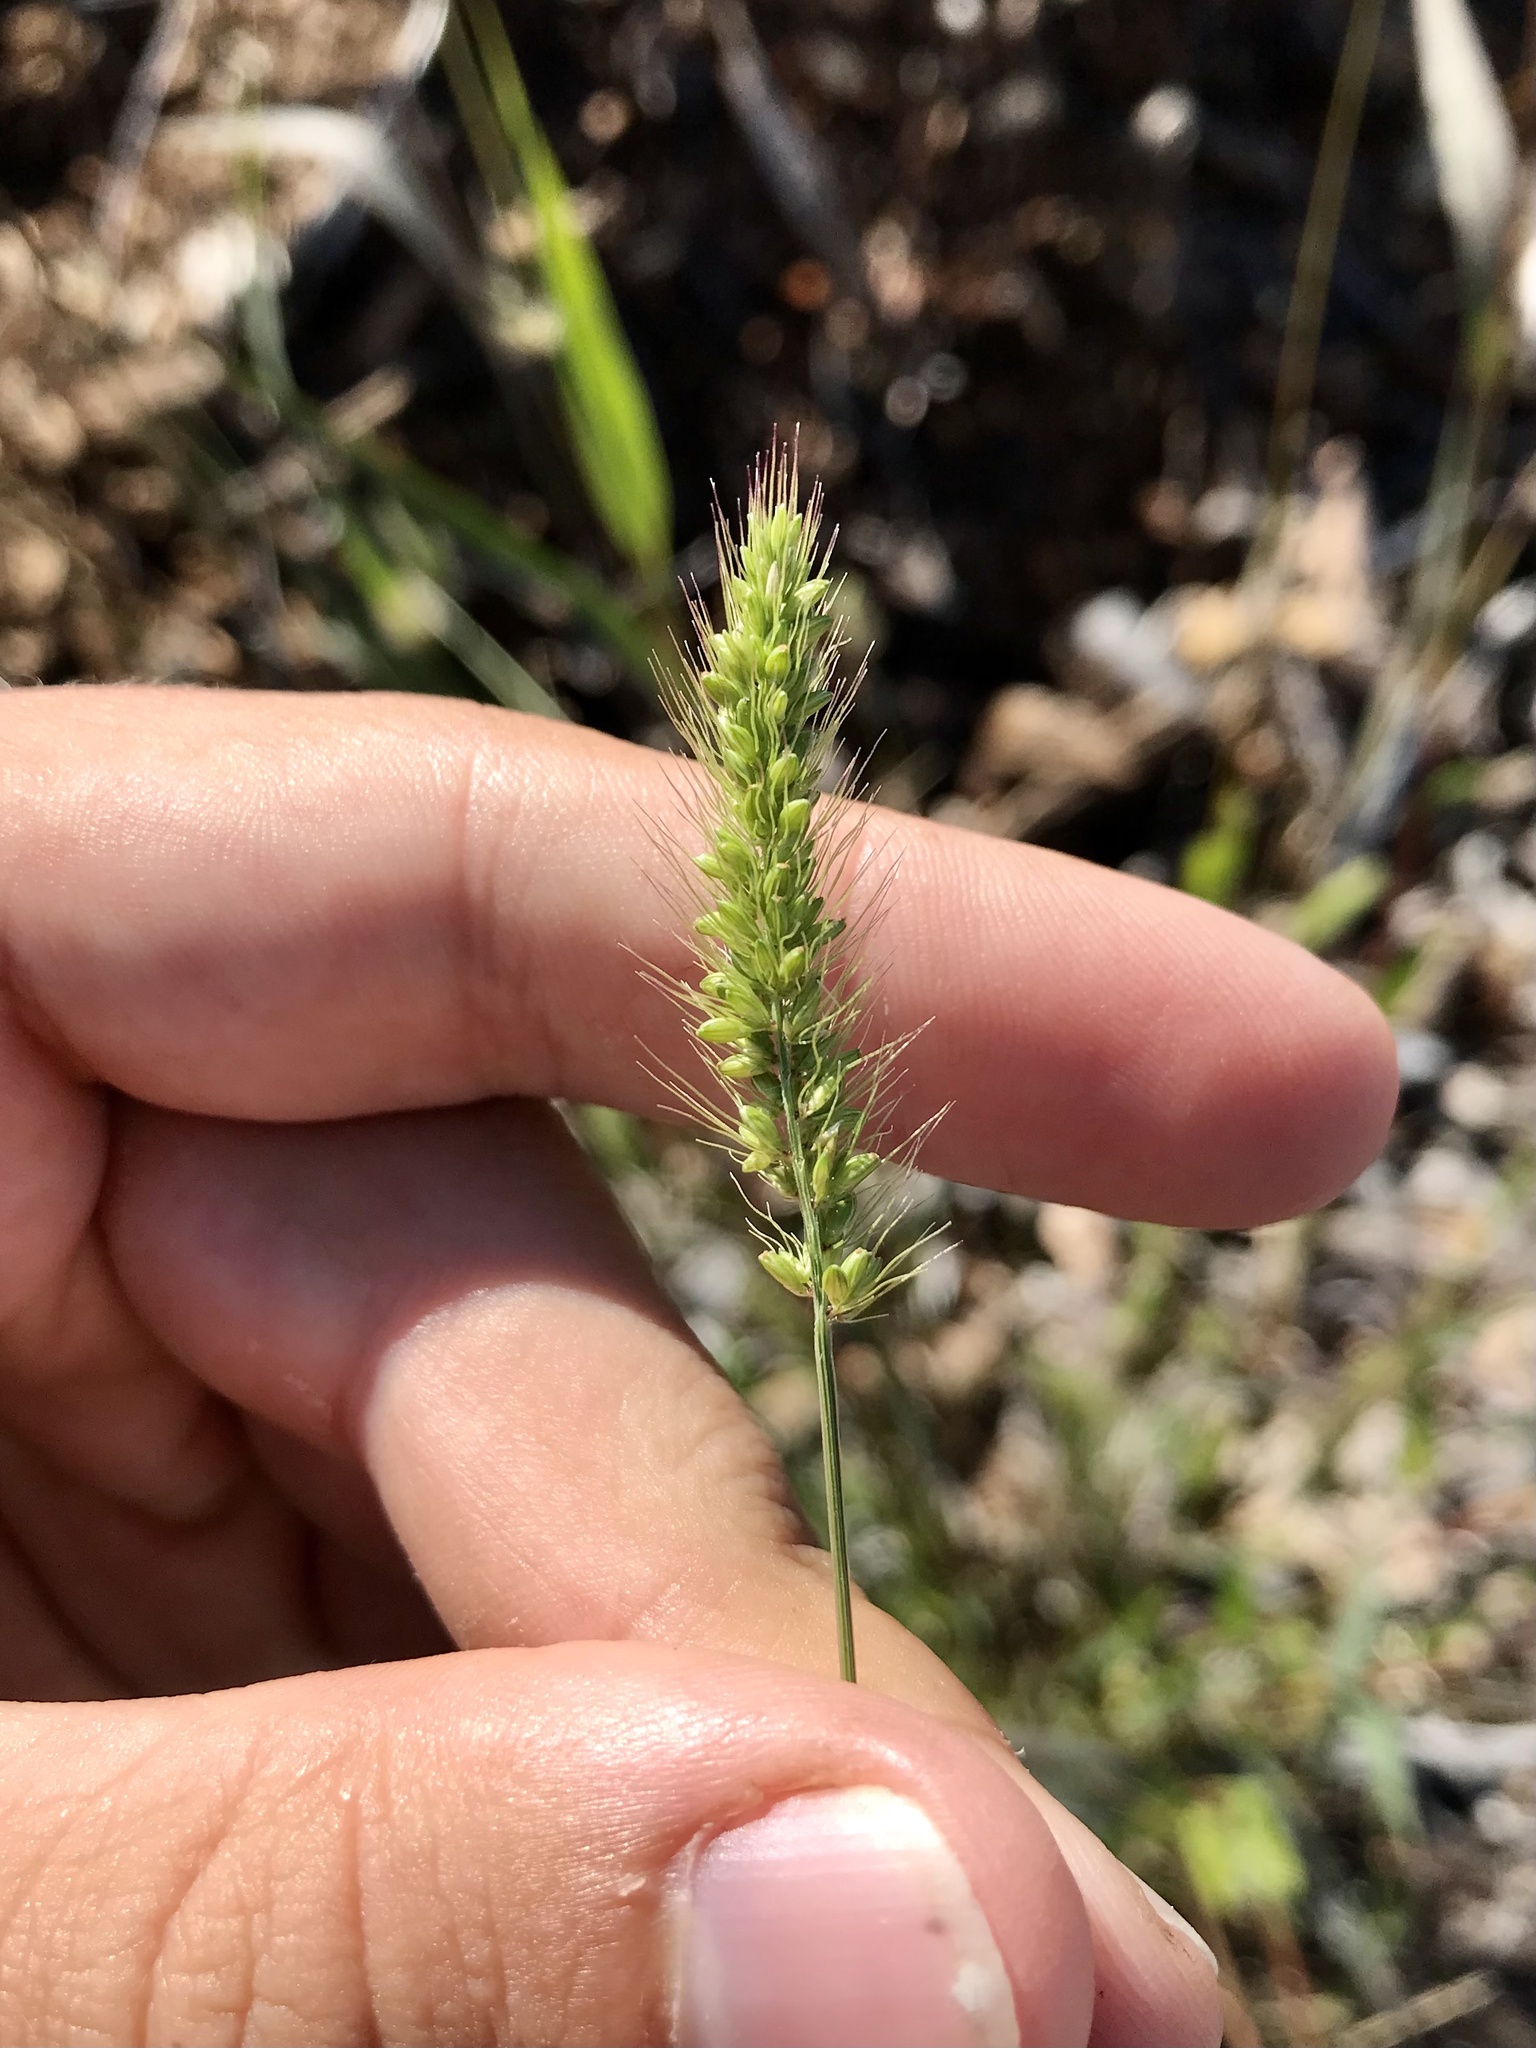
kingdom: Plantae
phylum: Tracheophyta
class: Liliopsida
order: Poales
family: Poaceae
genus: Setaria
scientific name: Setaria viridis
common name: Green bristlegrass
